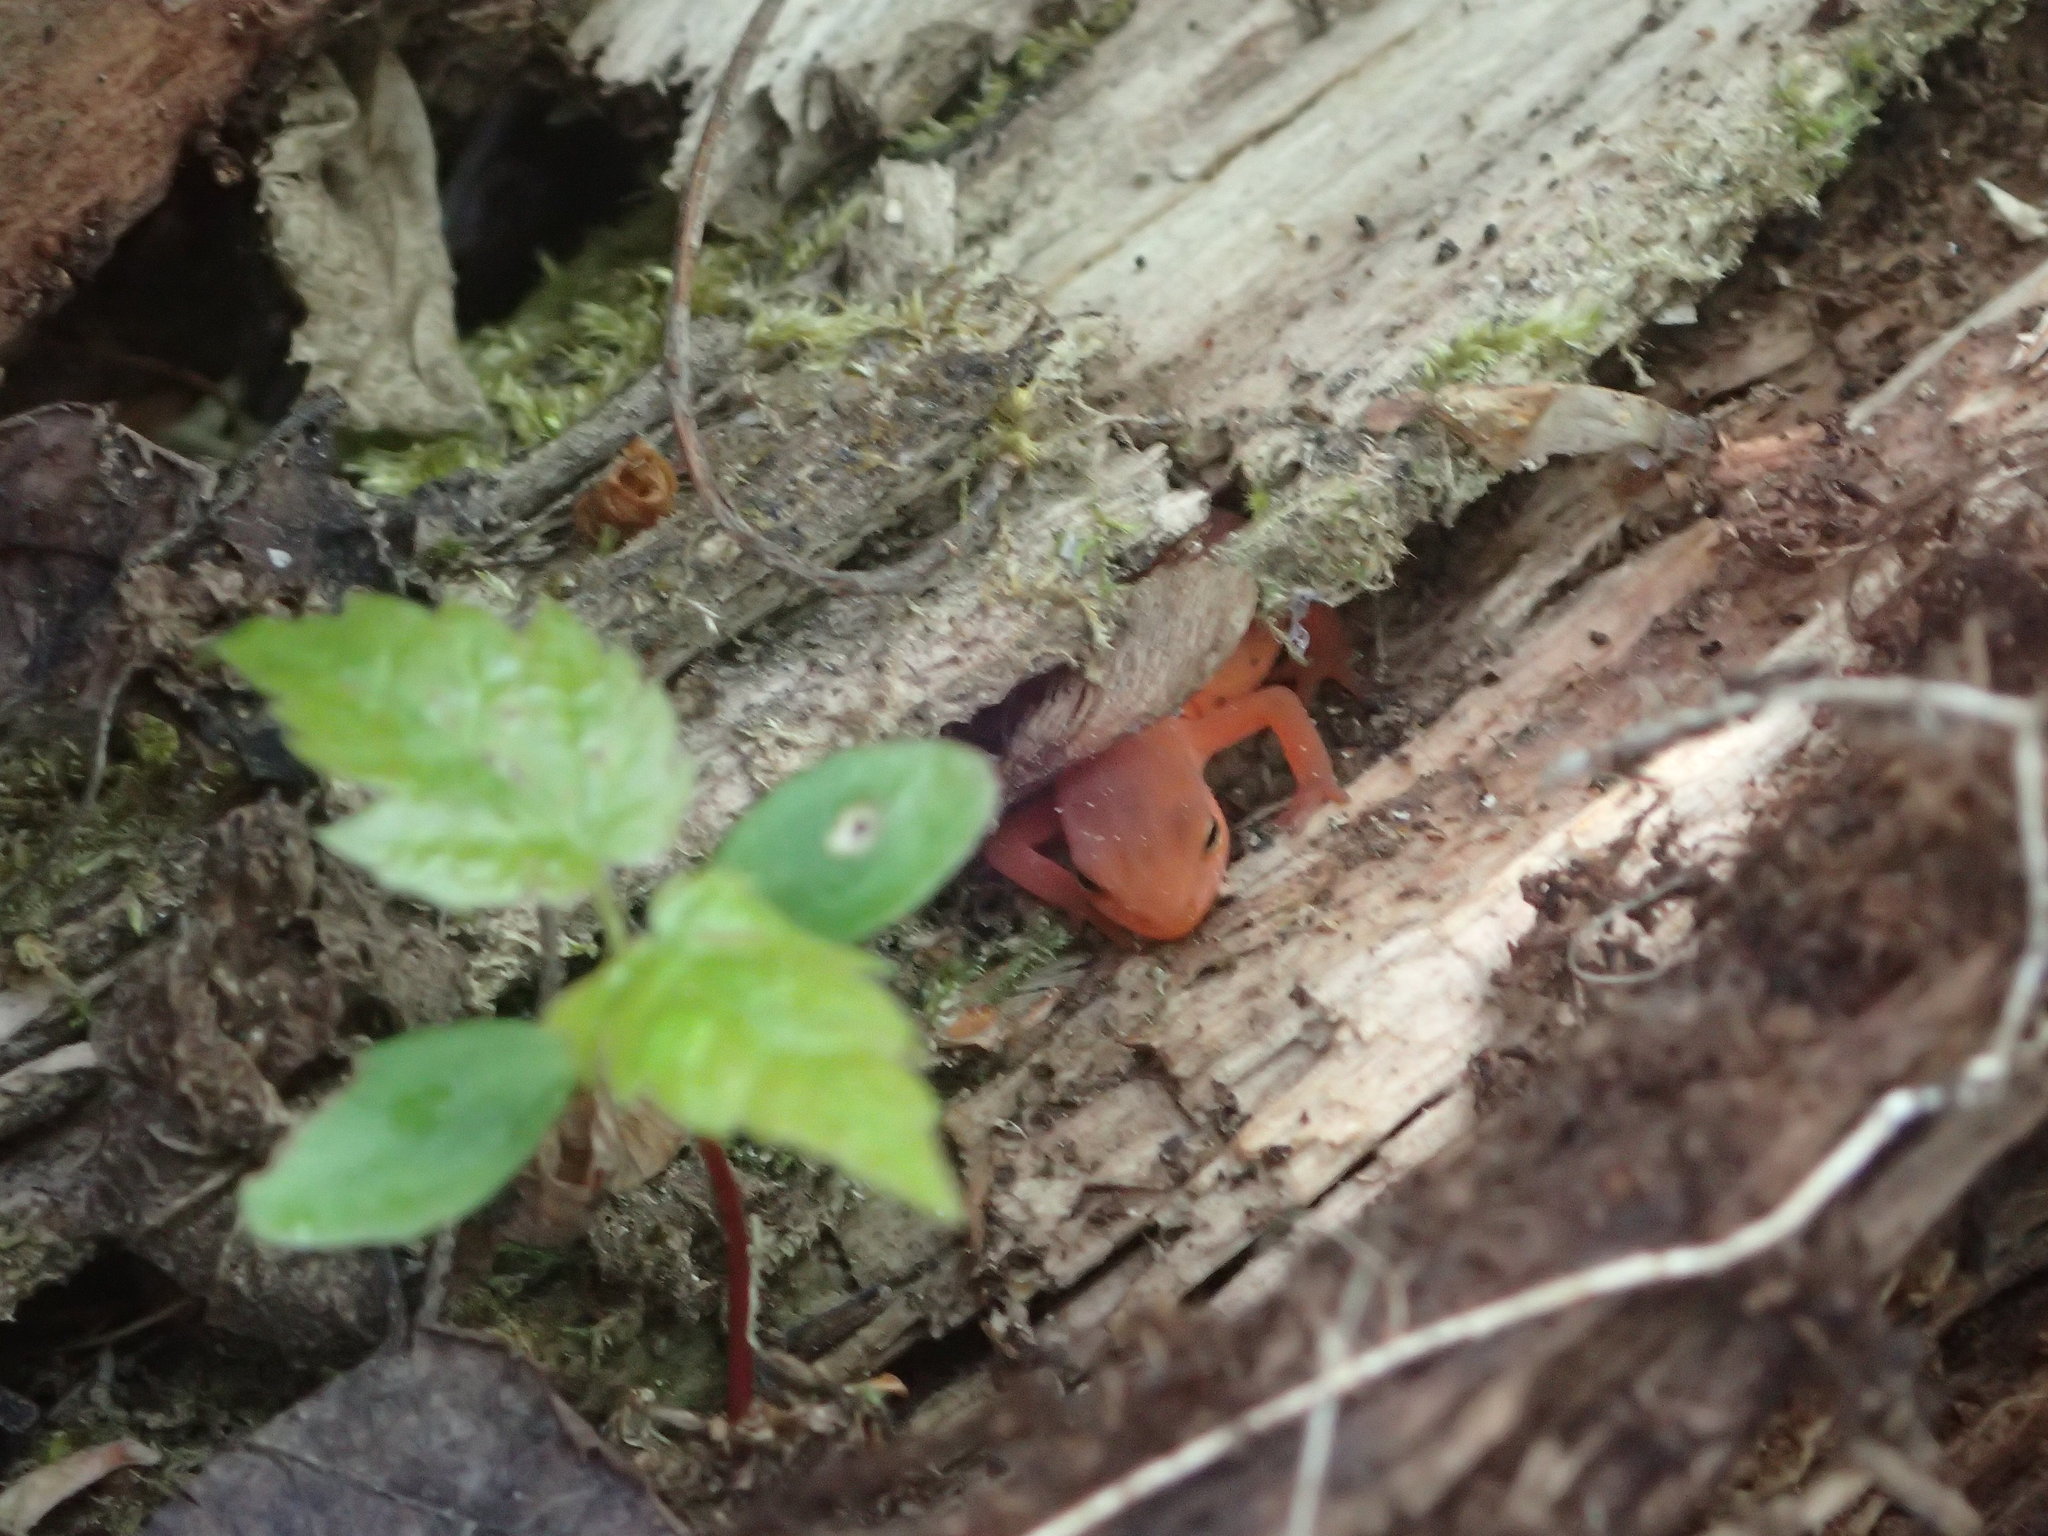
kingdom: Animalia
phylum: Chordata
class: Amphibia
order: Caudata
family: Salamandridae
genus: Notophthalmus
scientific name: Notophthalmus viridescens
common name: Eastern newt
